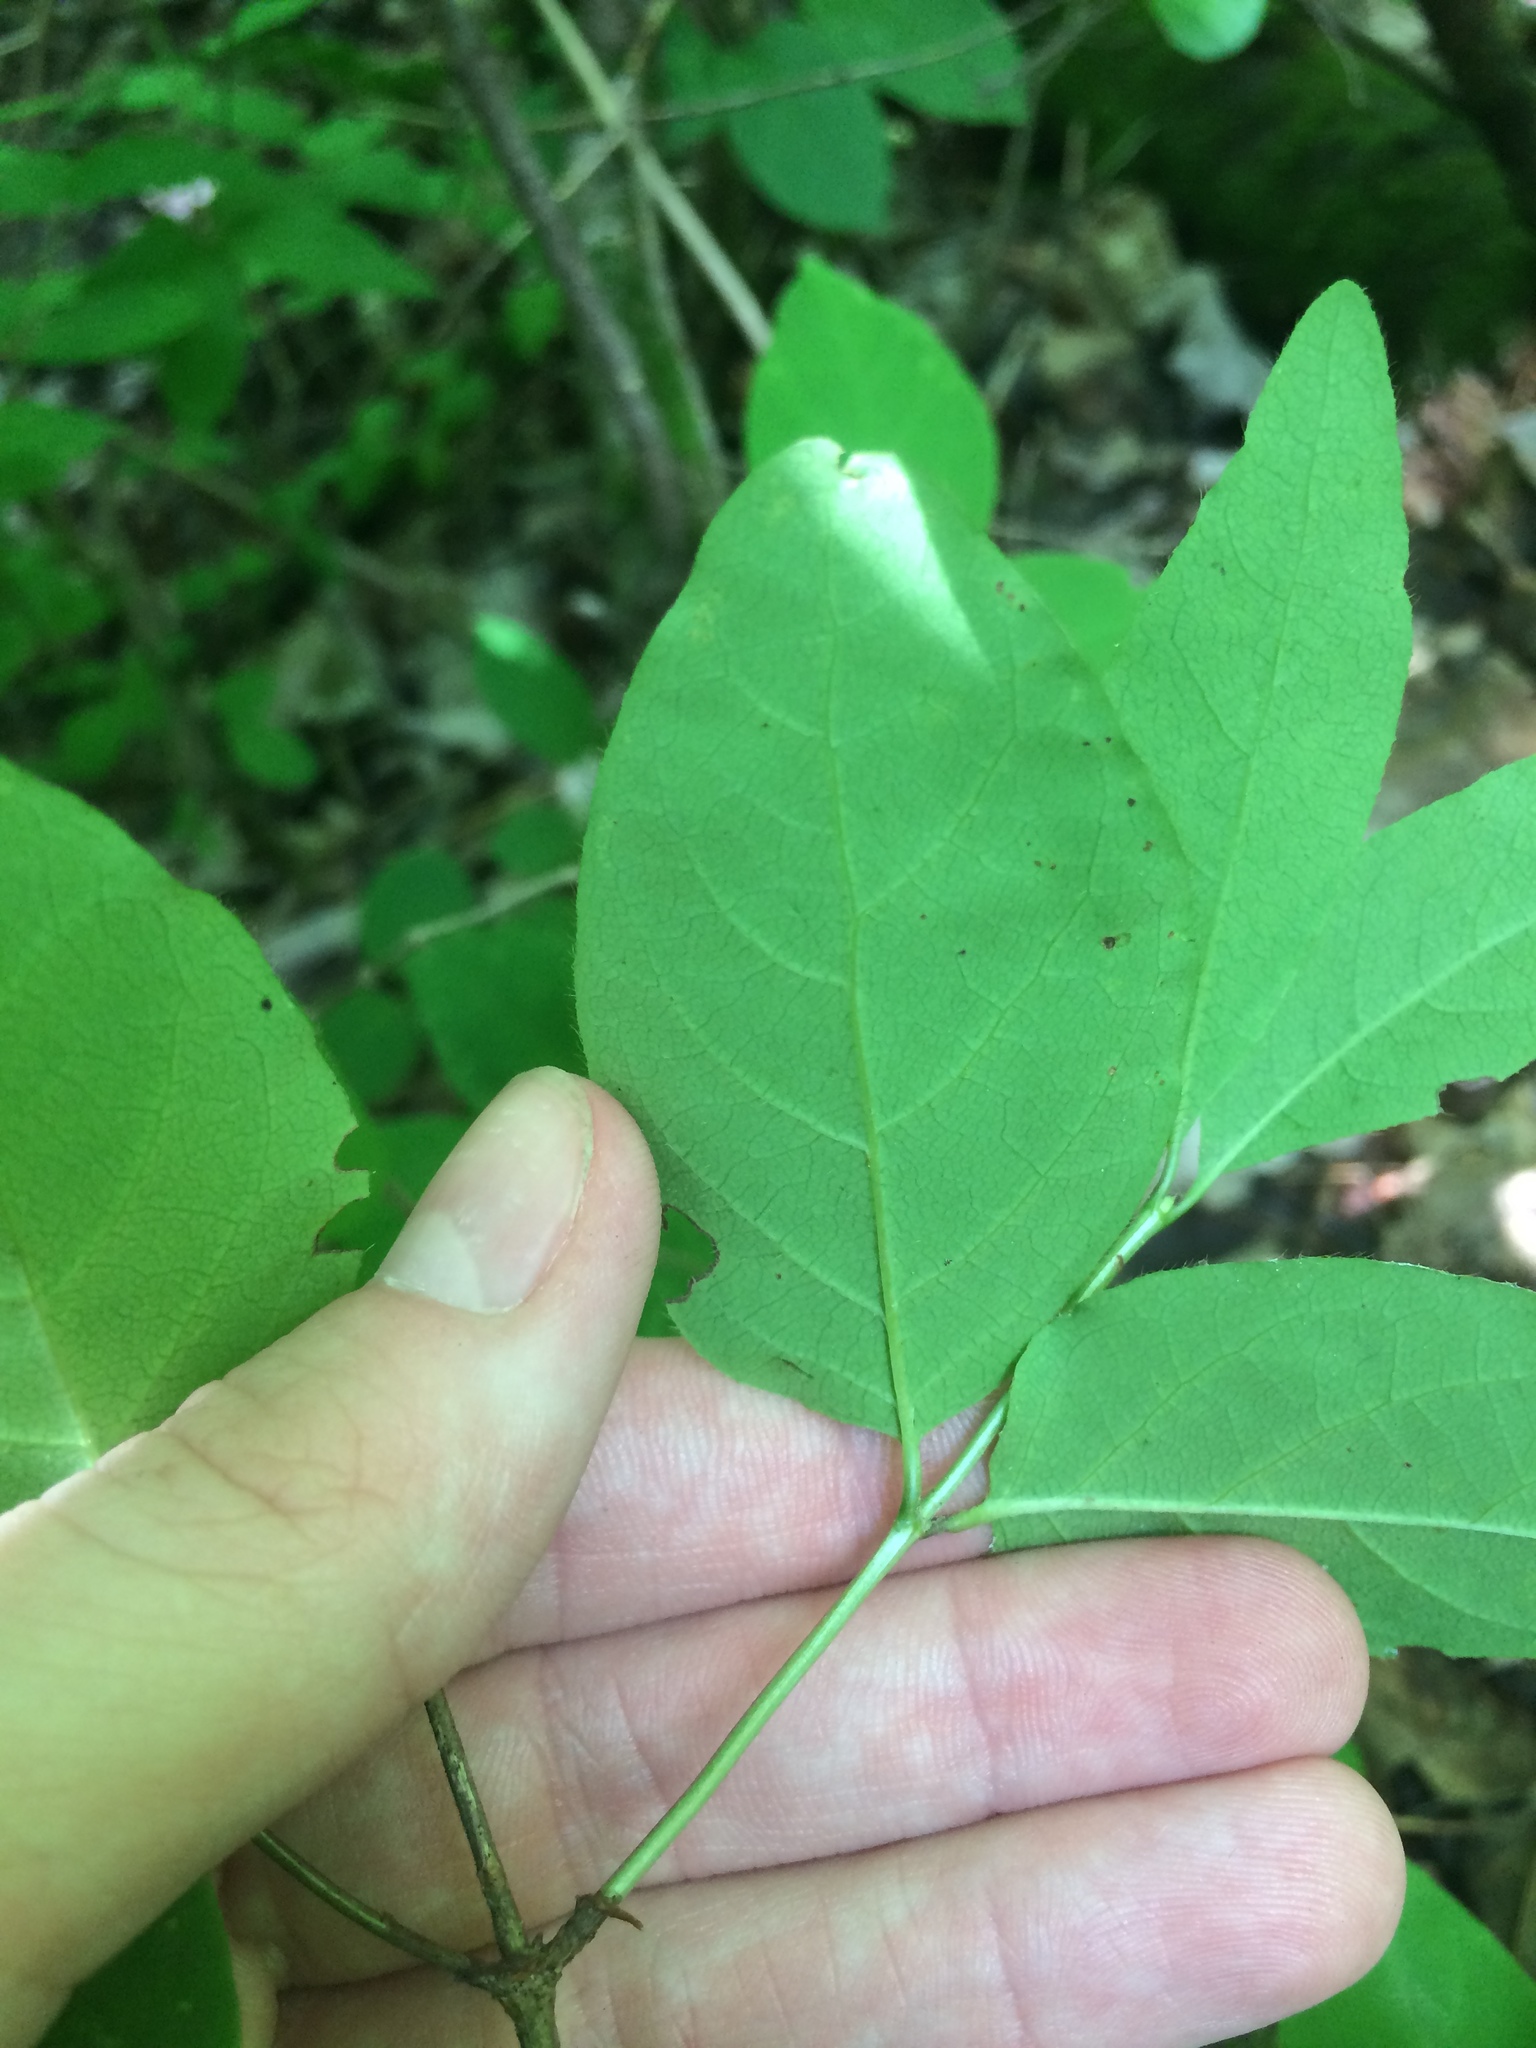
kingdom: Plantae
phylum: Tracheophyta
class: Magnoliopsida
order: Dipsacales
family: Caprifoliaceae
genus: Lonicera
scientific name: Lonicera canadensis
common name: American fly-honeysuckle
